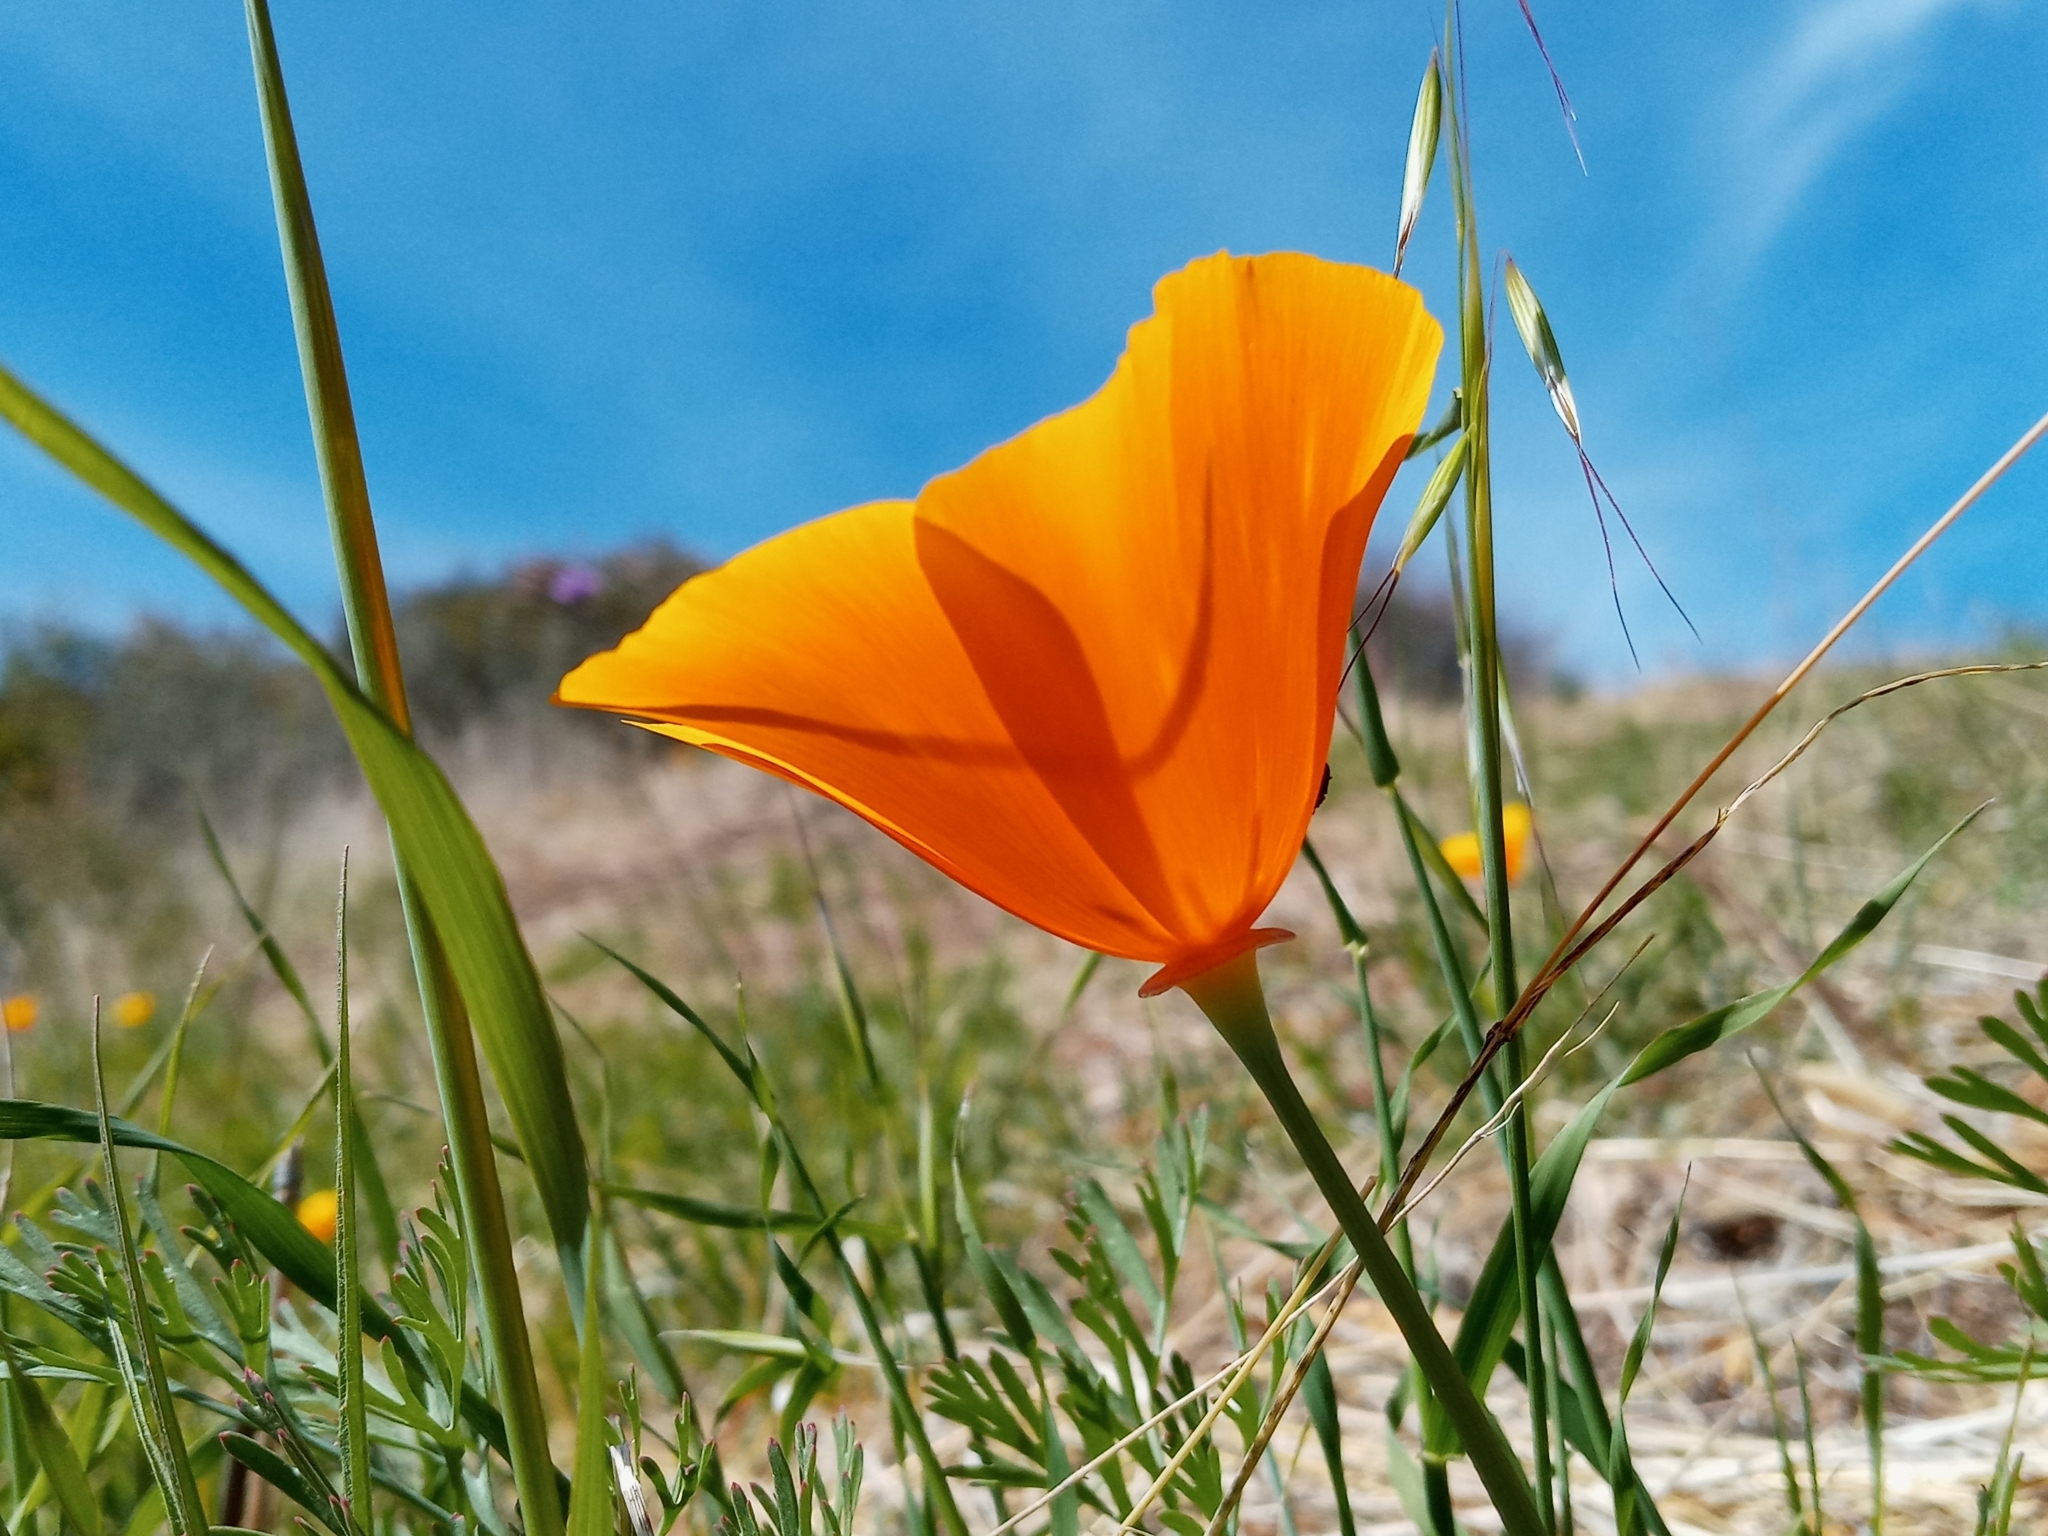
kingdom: Plantae
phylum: Tracheophyta
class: Magnoliopsida
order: Ranunculales
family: Papaveraceae
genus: Eschscholzia
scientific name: Eschscholzia californica
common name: California poppy
